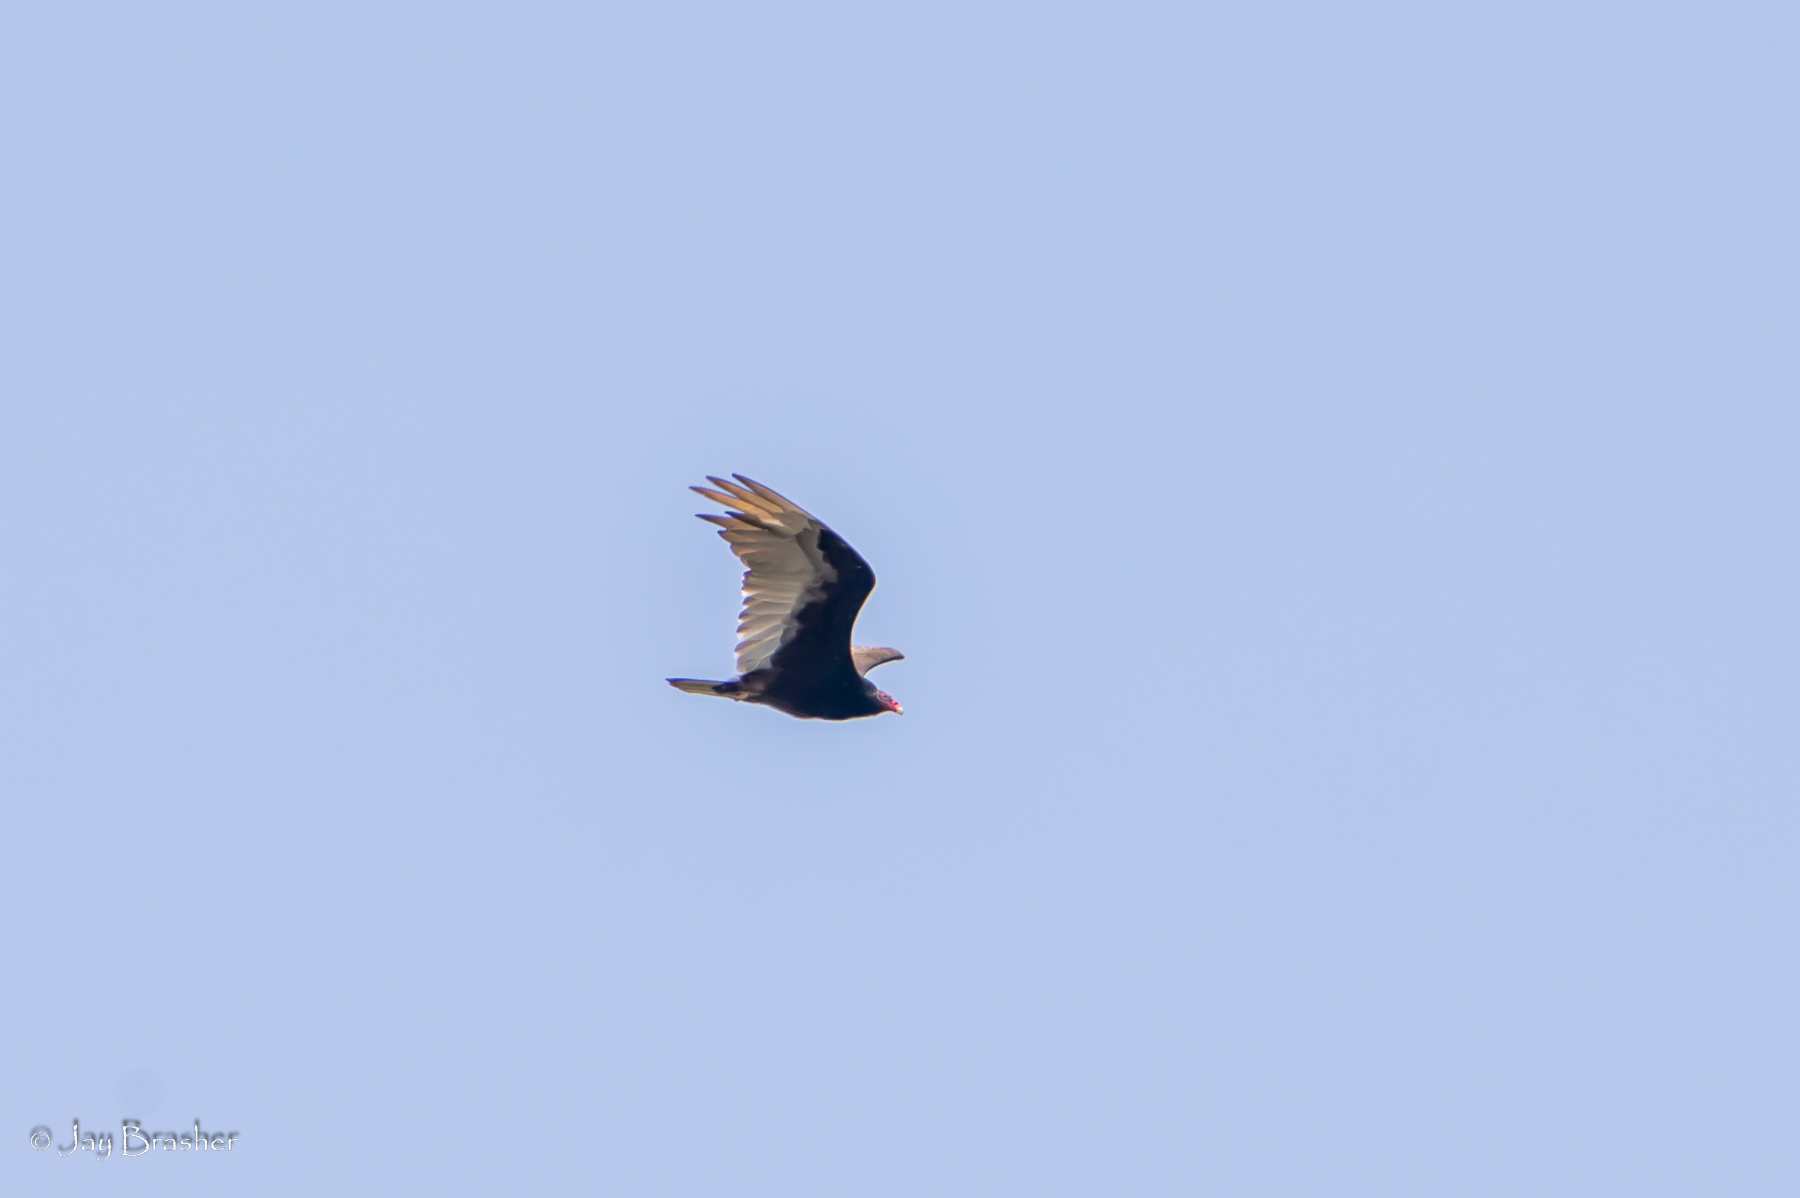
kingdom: Animalia
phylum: Chordata
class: Aves
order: Accipitriformes
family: Cathartidae
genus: Cathartes
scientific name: Cathartes aura
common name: Turkey vulture
